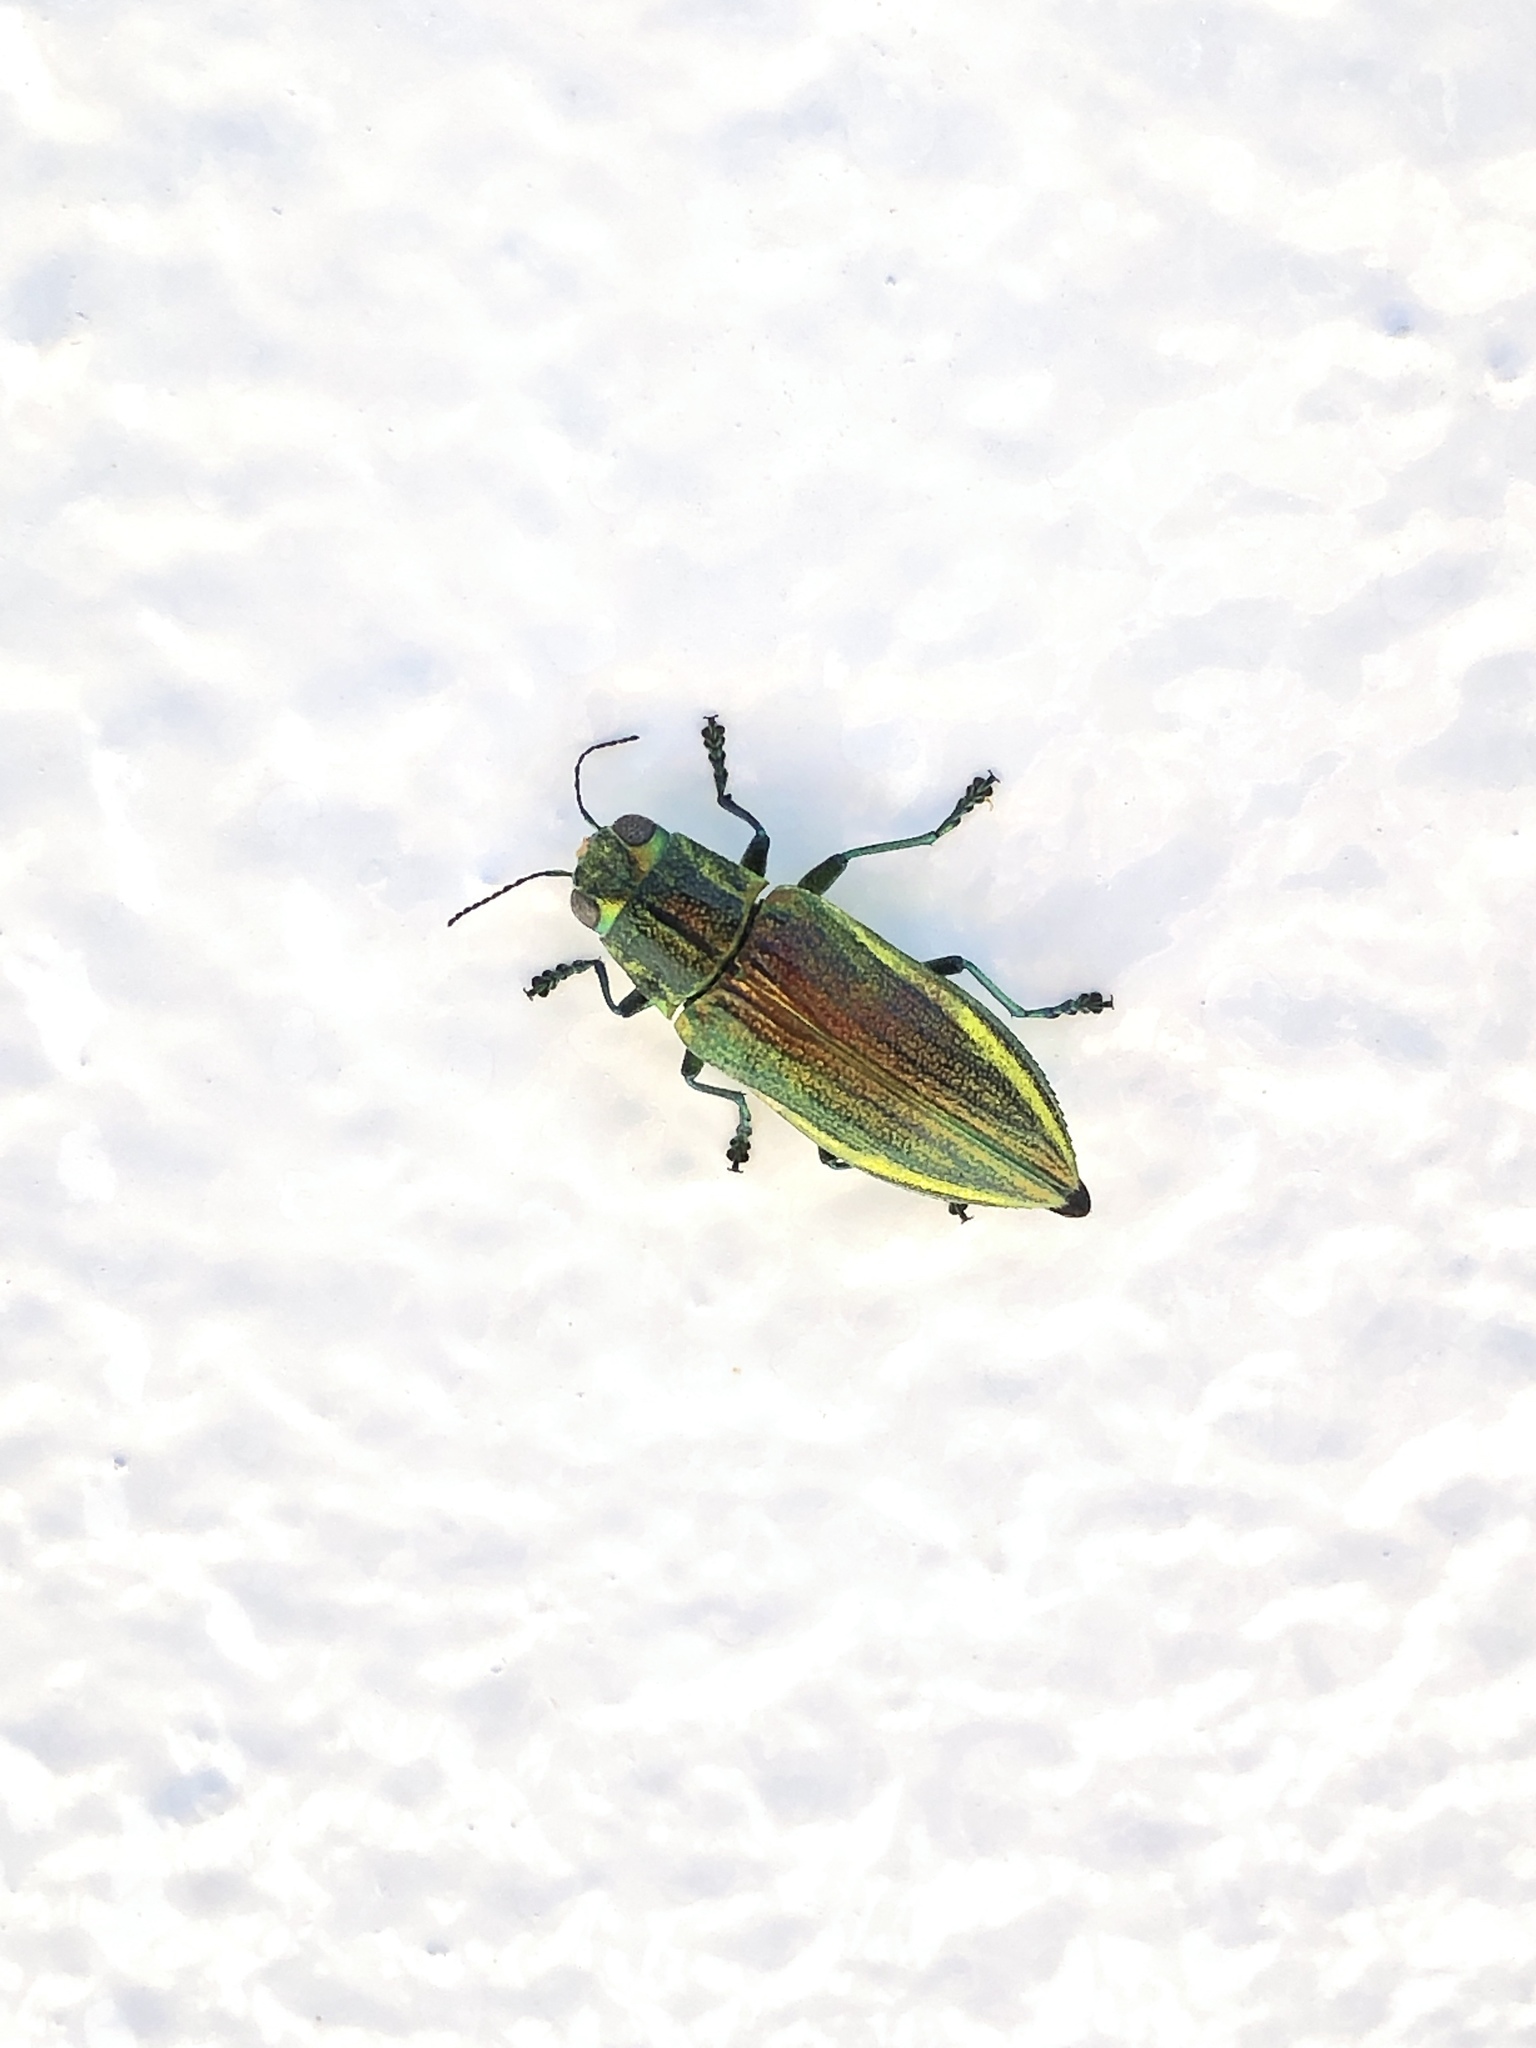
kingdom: Animalia
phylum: Arthropoda
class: Insecta
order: Coleoptera
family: Buprestidae
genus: Chrysodema
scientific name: Chrysodema lewisii
